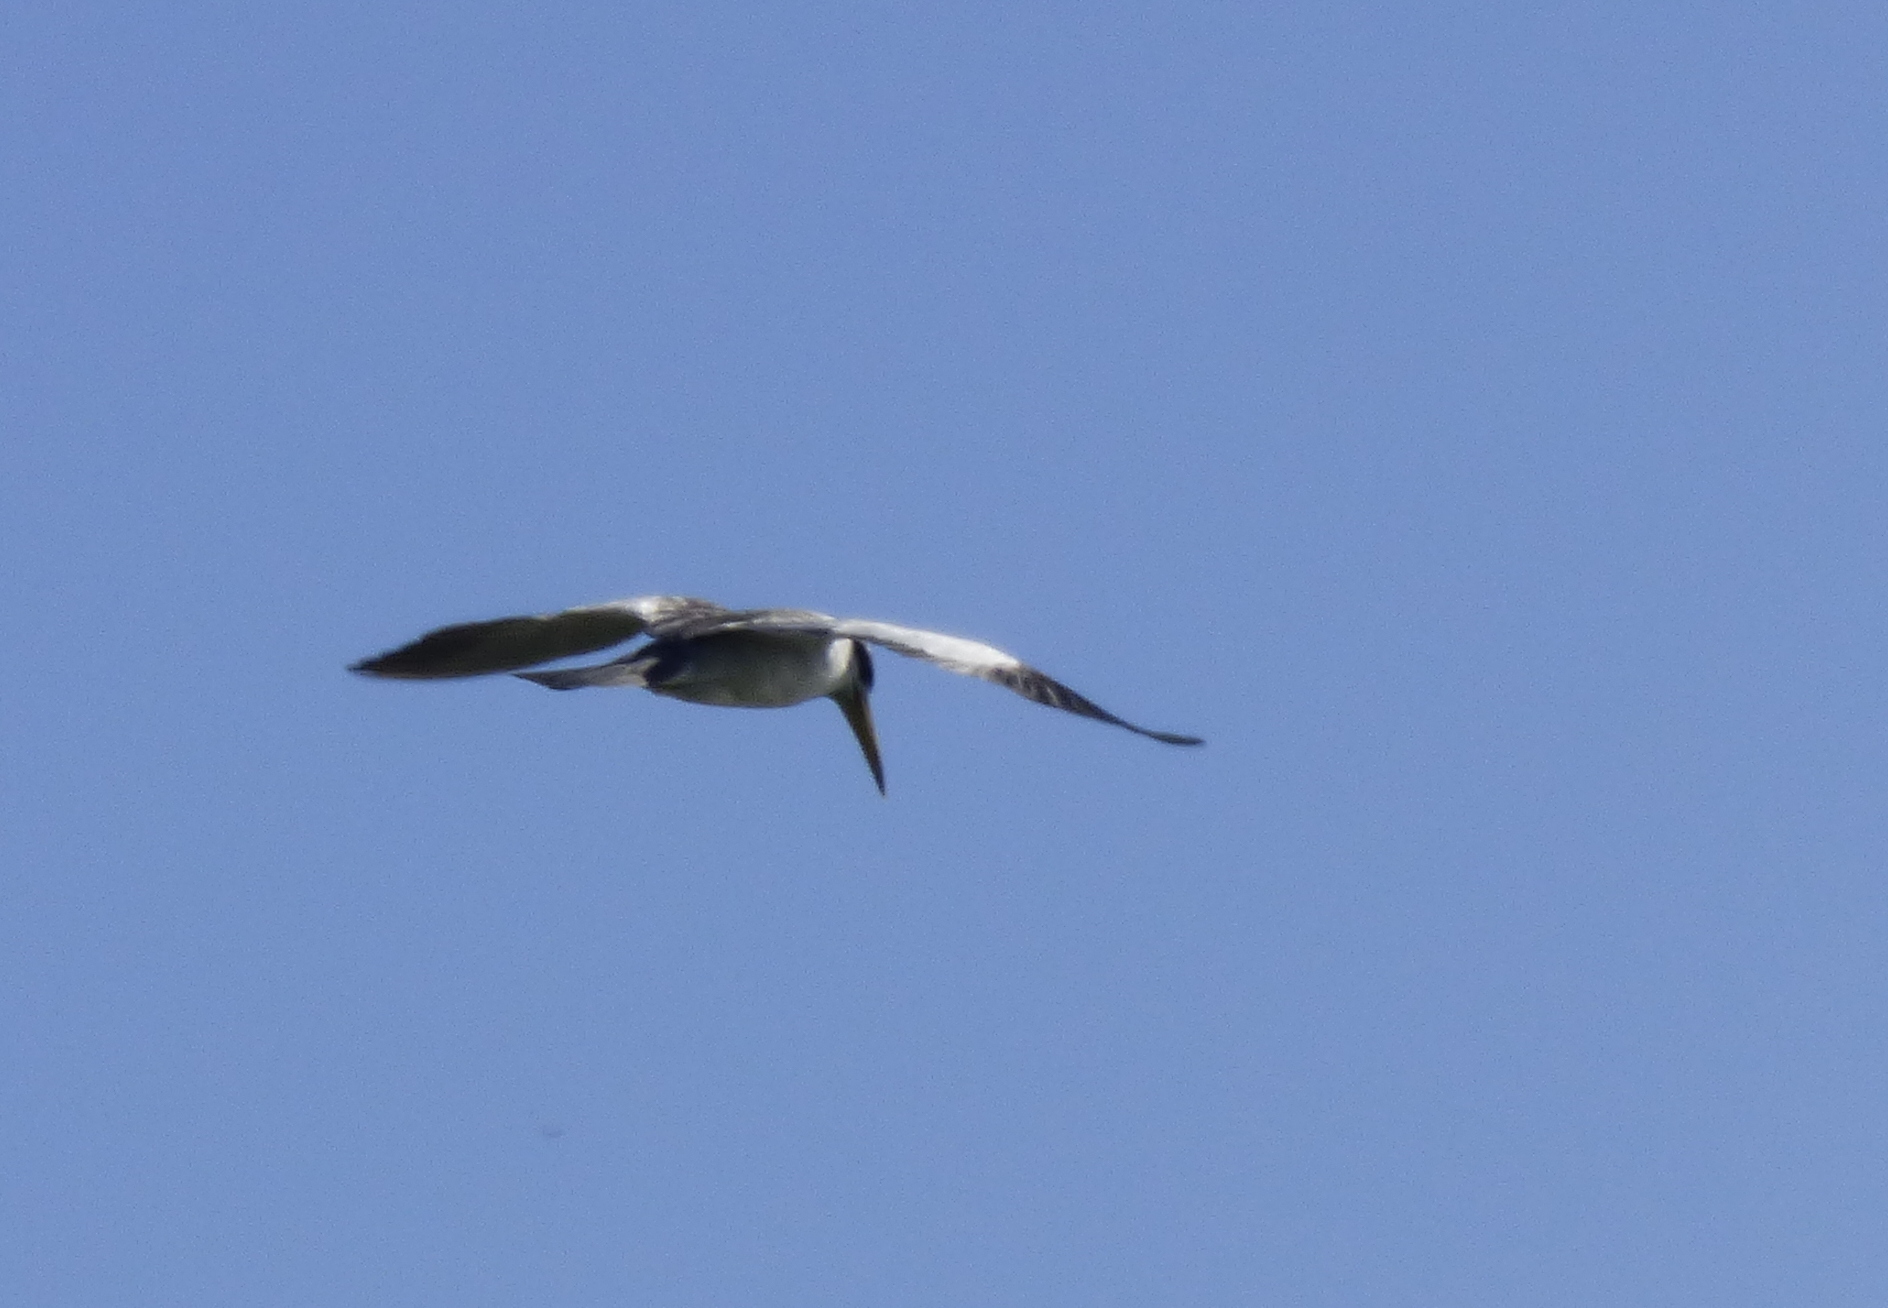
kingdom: Animalia
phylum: Chordata
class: Aves
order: Charadriiformes
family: Laridae
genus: Phaetusa
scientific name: Phaetusa simplex
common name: Large-billed tern
